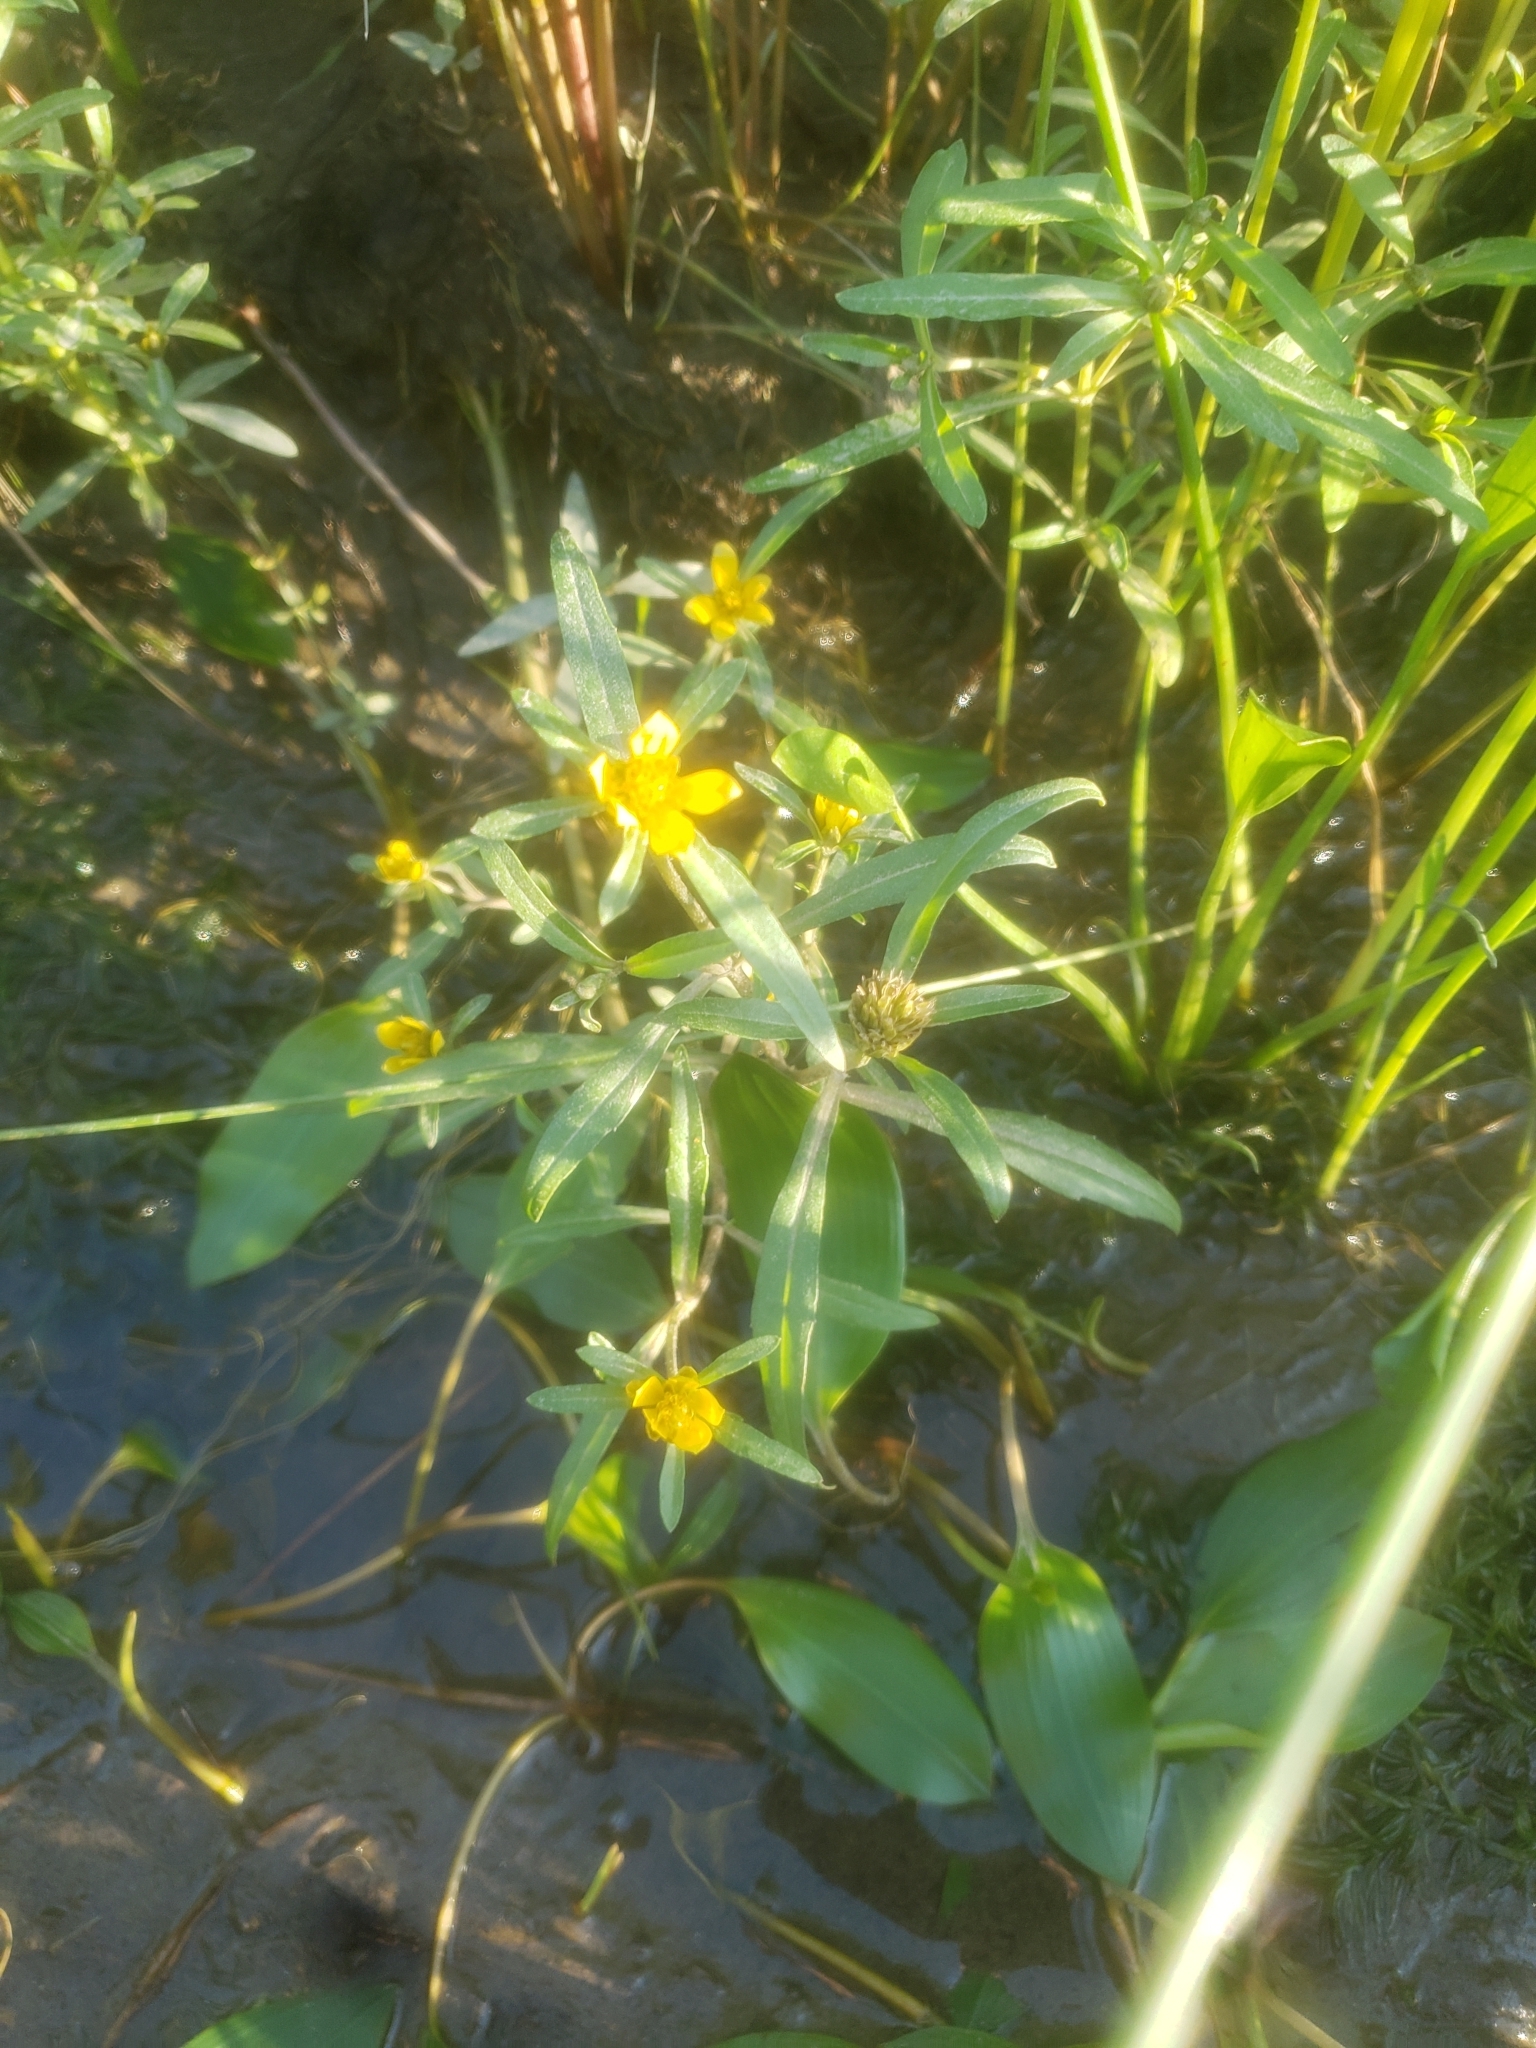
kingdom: Plantae
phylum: Tracheophyta
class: Magnoliopsida
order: Asterales
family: Asteraceae
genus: Bidens
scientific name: Bidens hyperborea
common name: Coastal beggarticks
